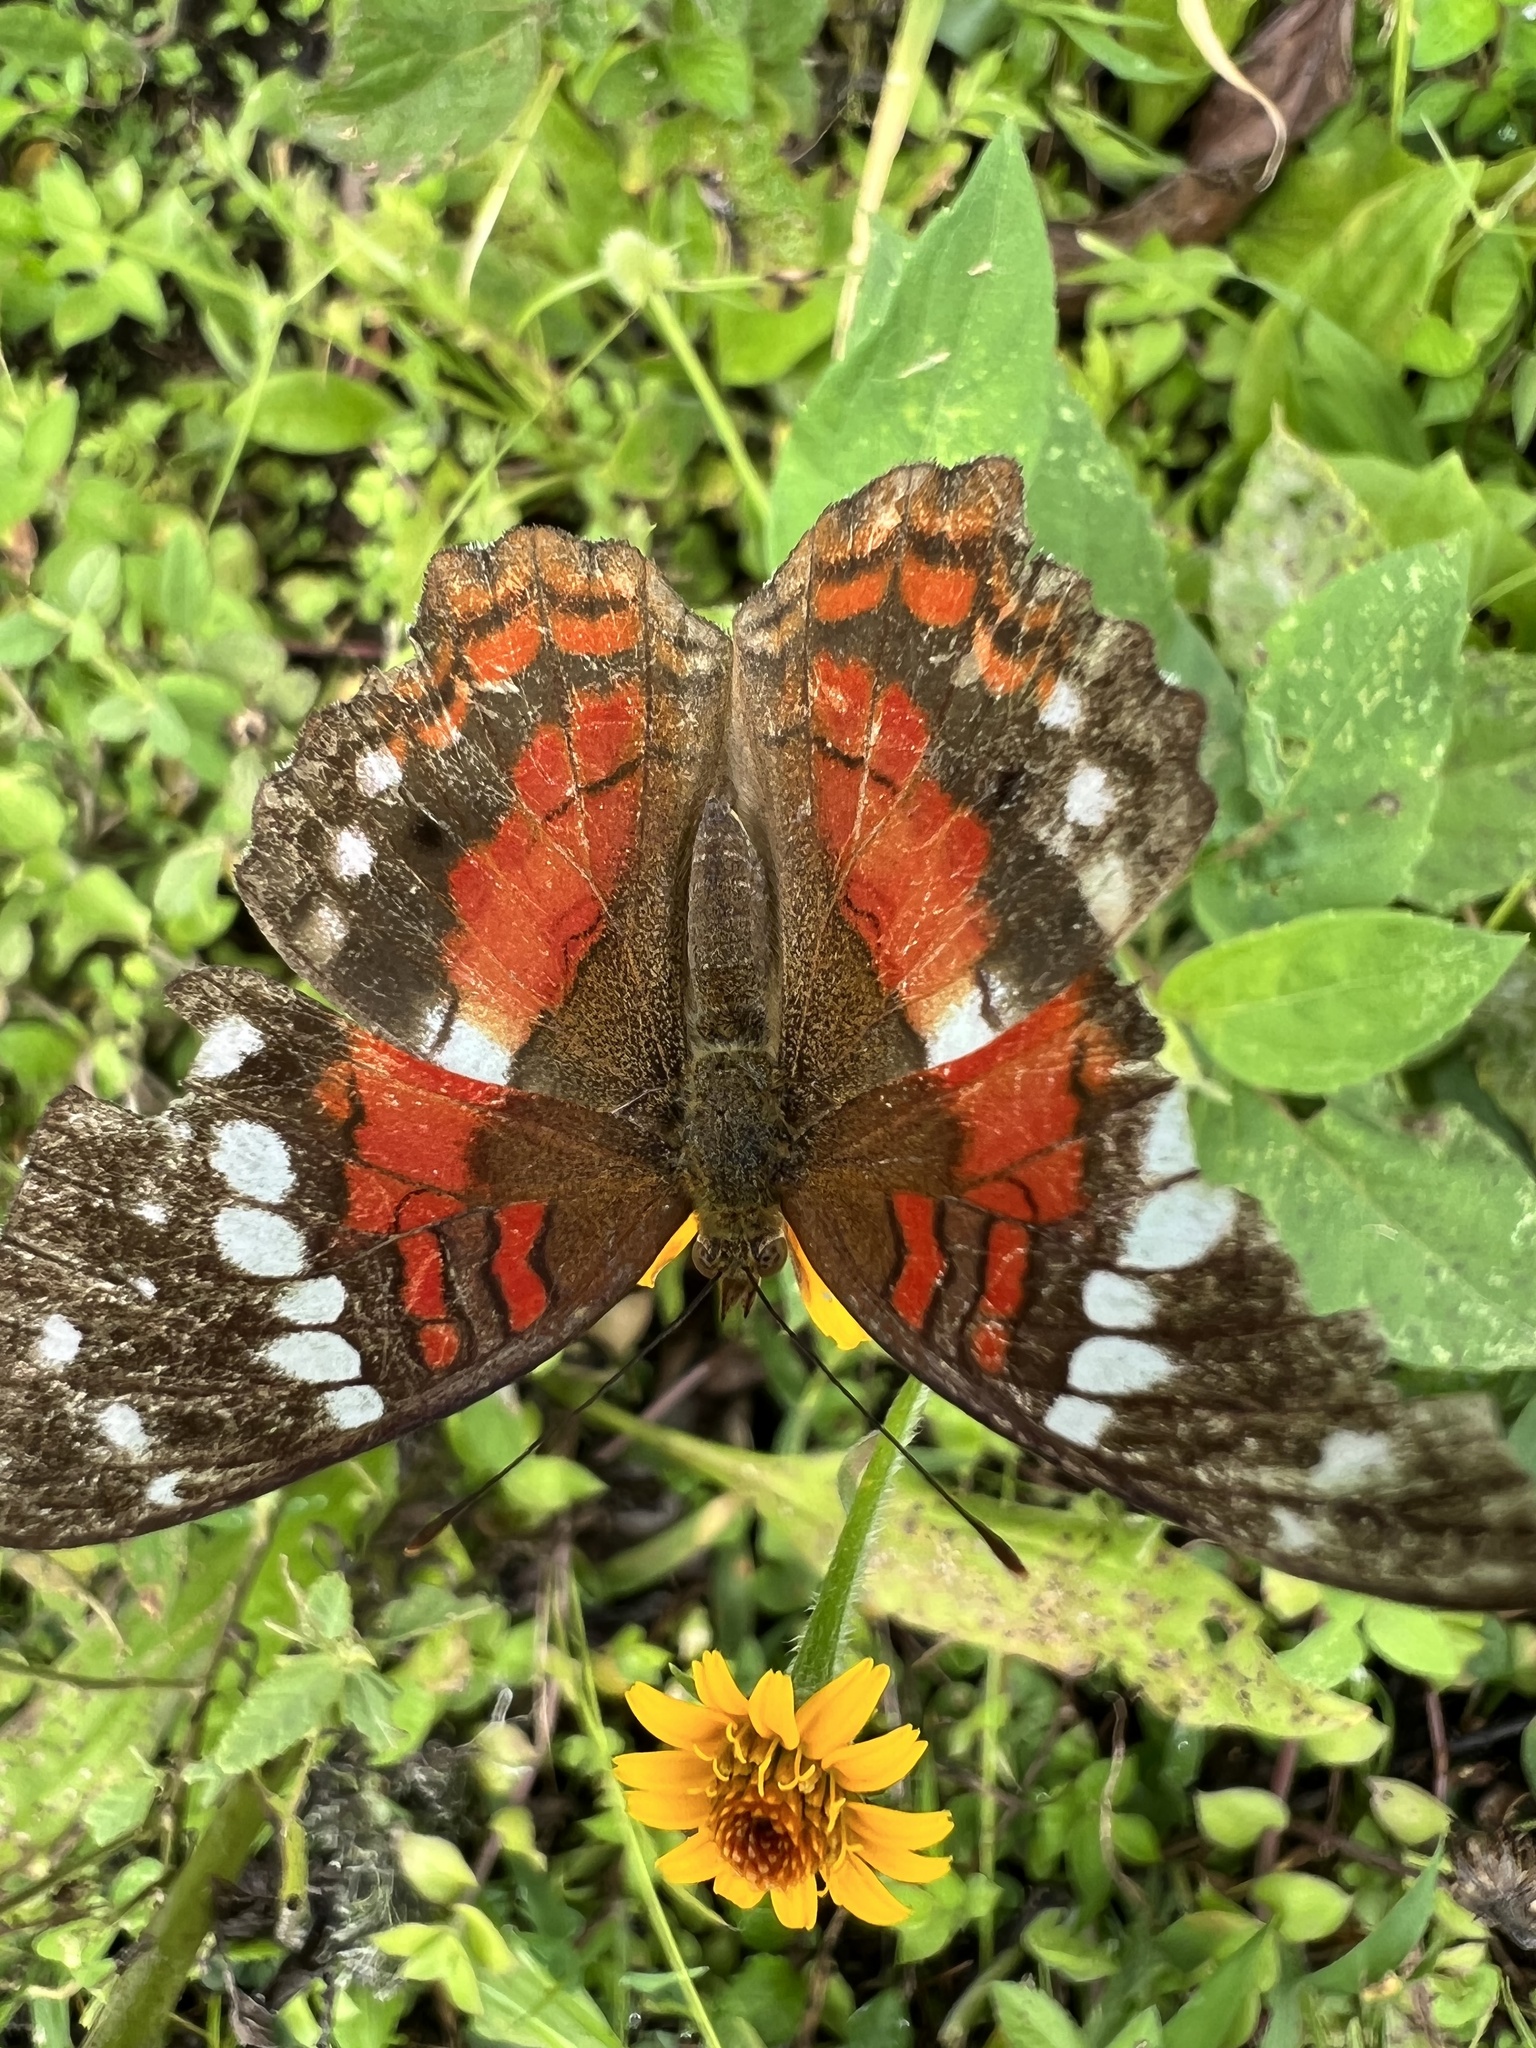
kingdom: Animalia
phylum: Arthropoda
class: Insecta
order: Lepidoptera
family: Nymphalidae
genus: Anartia
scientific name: Anartia amathea
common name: Red peacock
